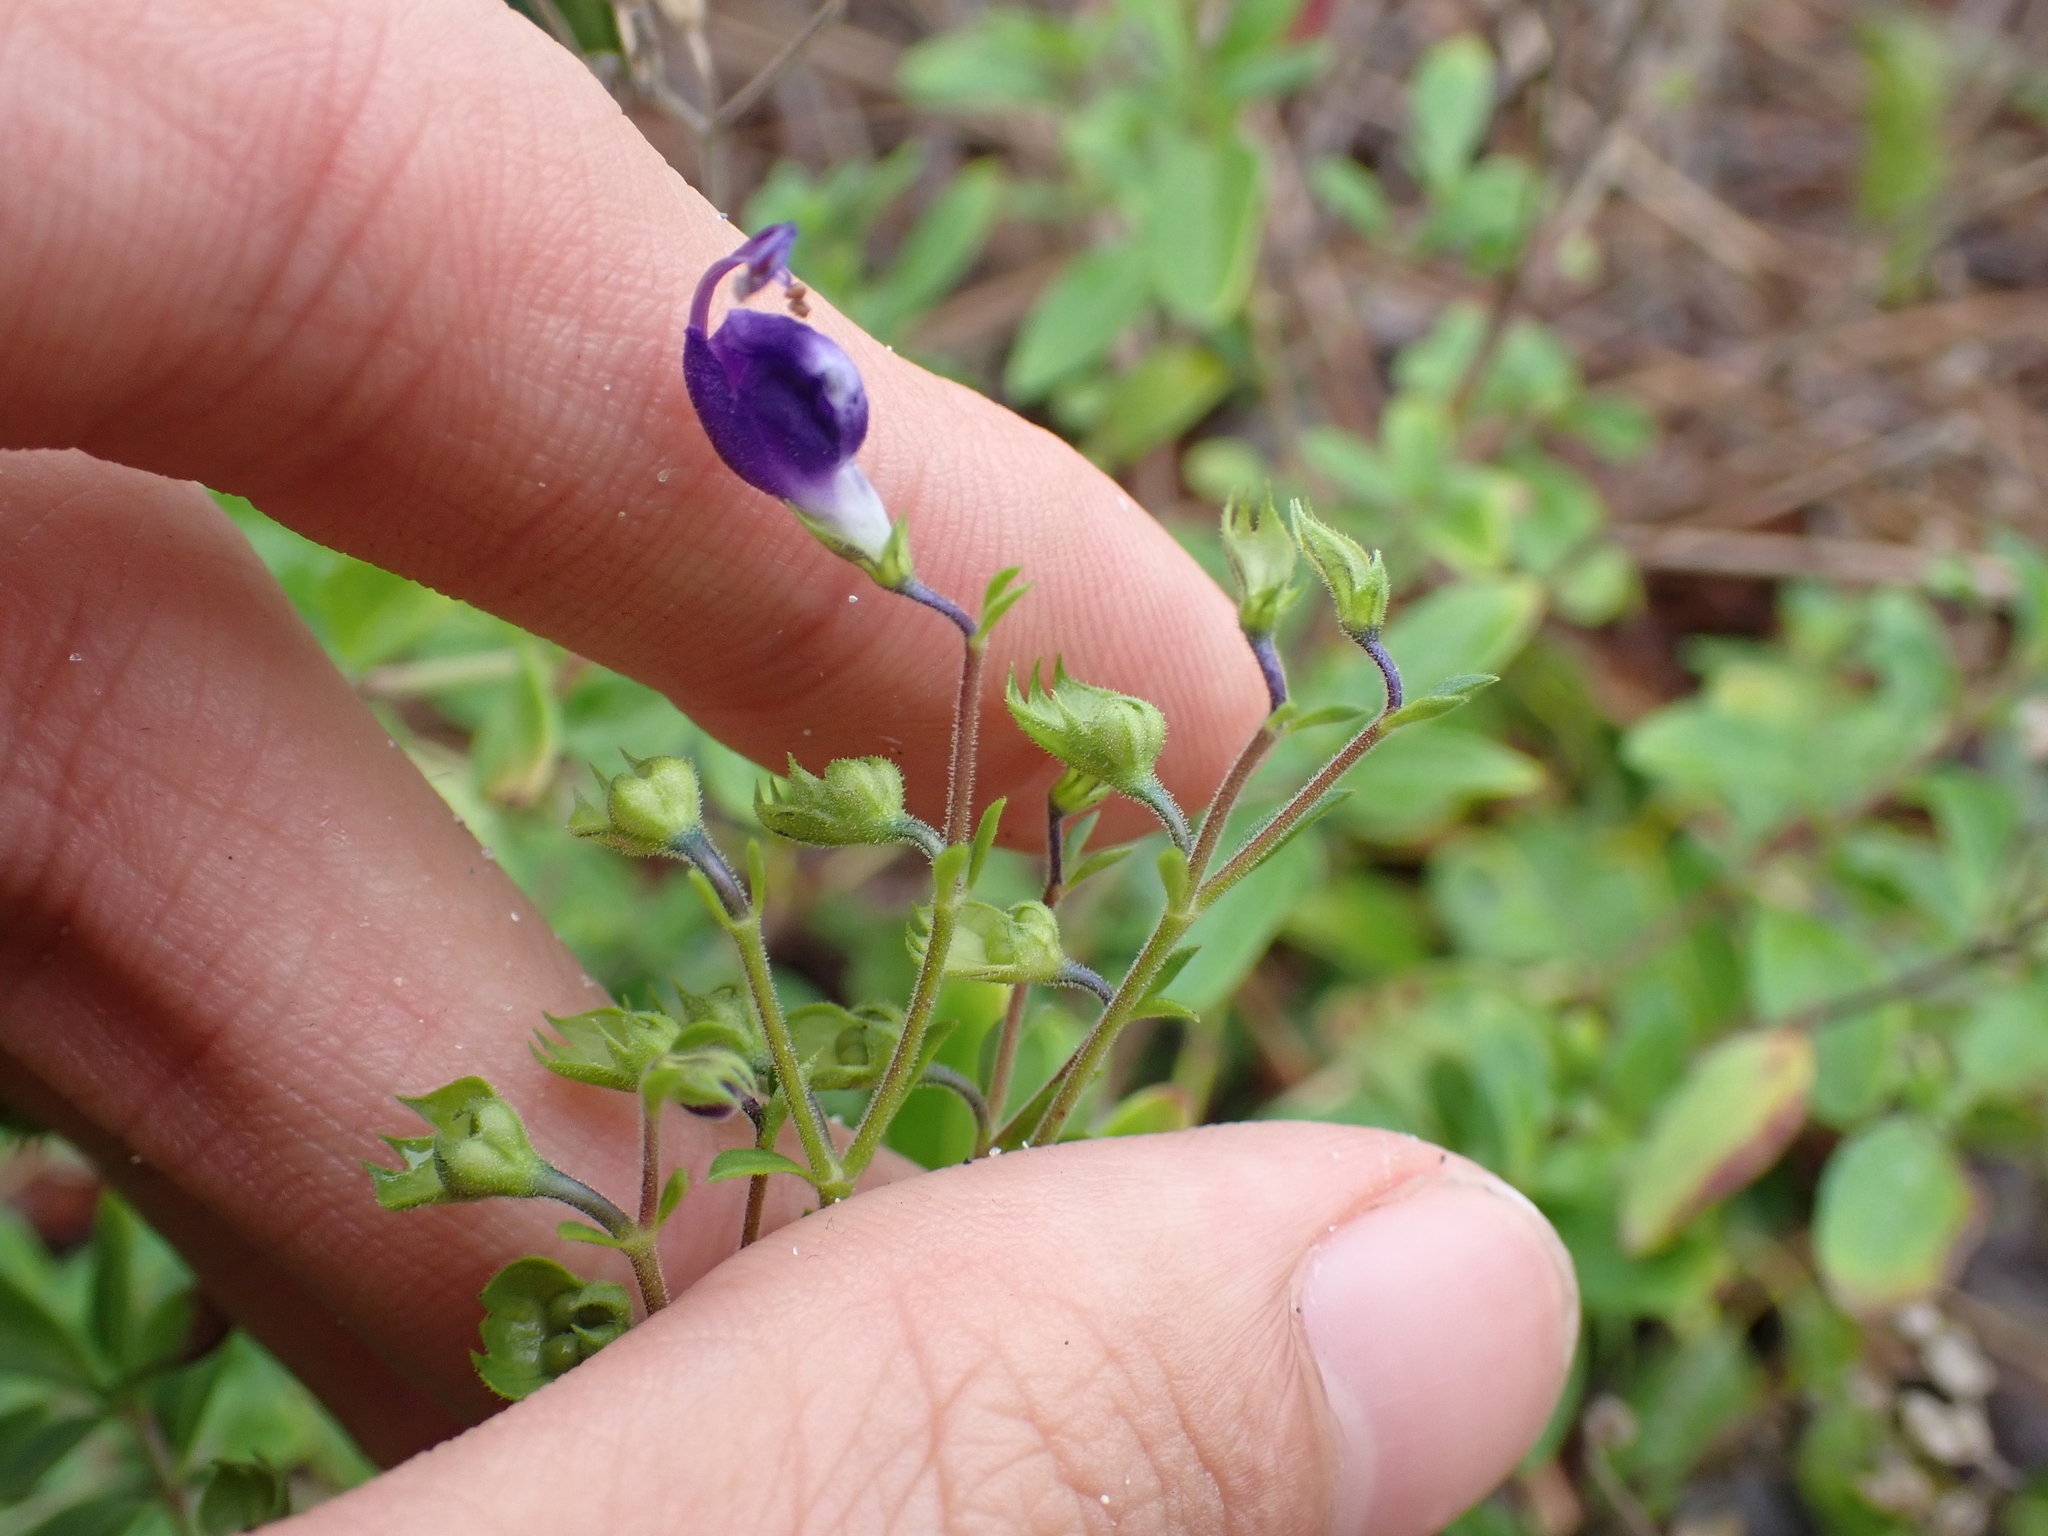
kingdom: Plantae
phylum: Tracheophyta
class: Magnoliopsida
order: Lamiales
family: Lamiaceae
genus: Trichostema
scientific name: Trichostema
